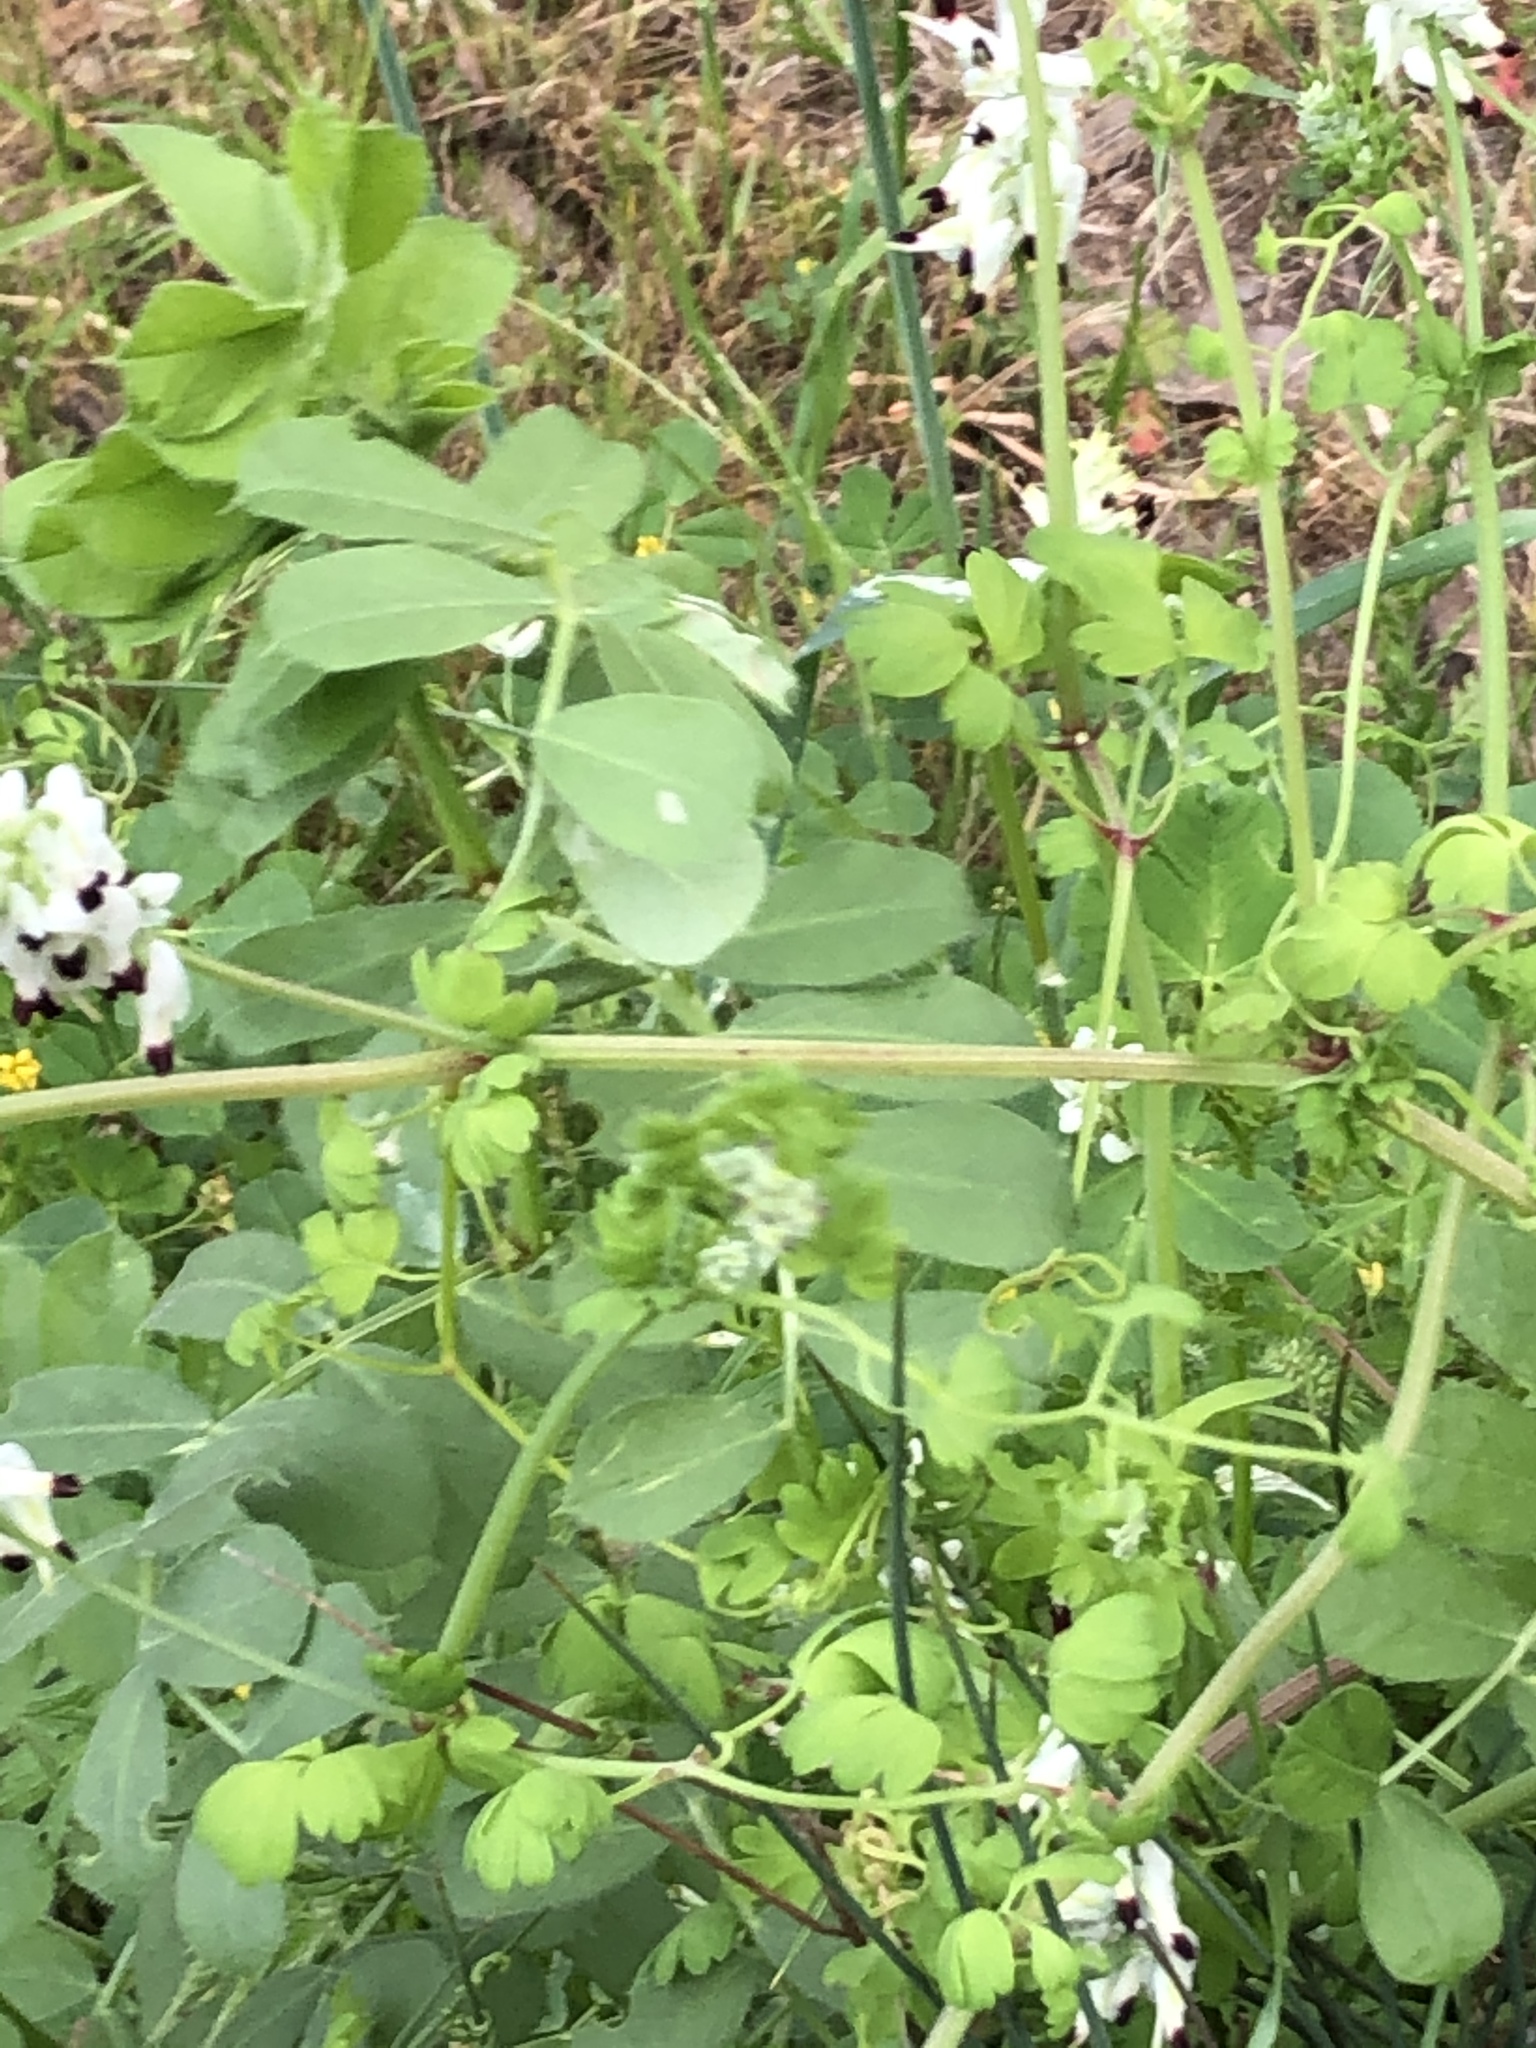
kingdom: Plantae
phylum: Tracheophyta
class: Magnoliopsida
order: Ranunculales
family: Papaveraceae
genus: Fumaria
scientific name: Fumaria capreolata
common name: White ramping-fumitory
